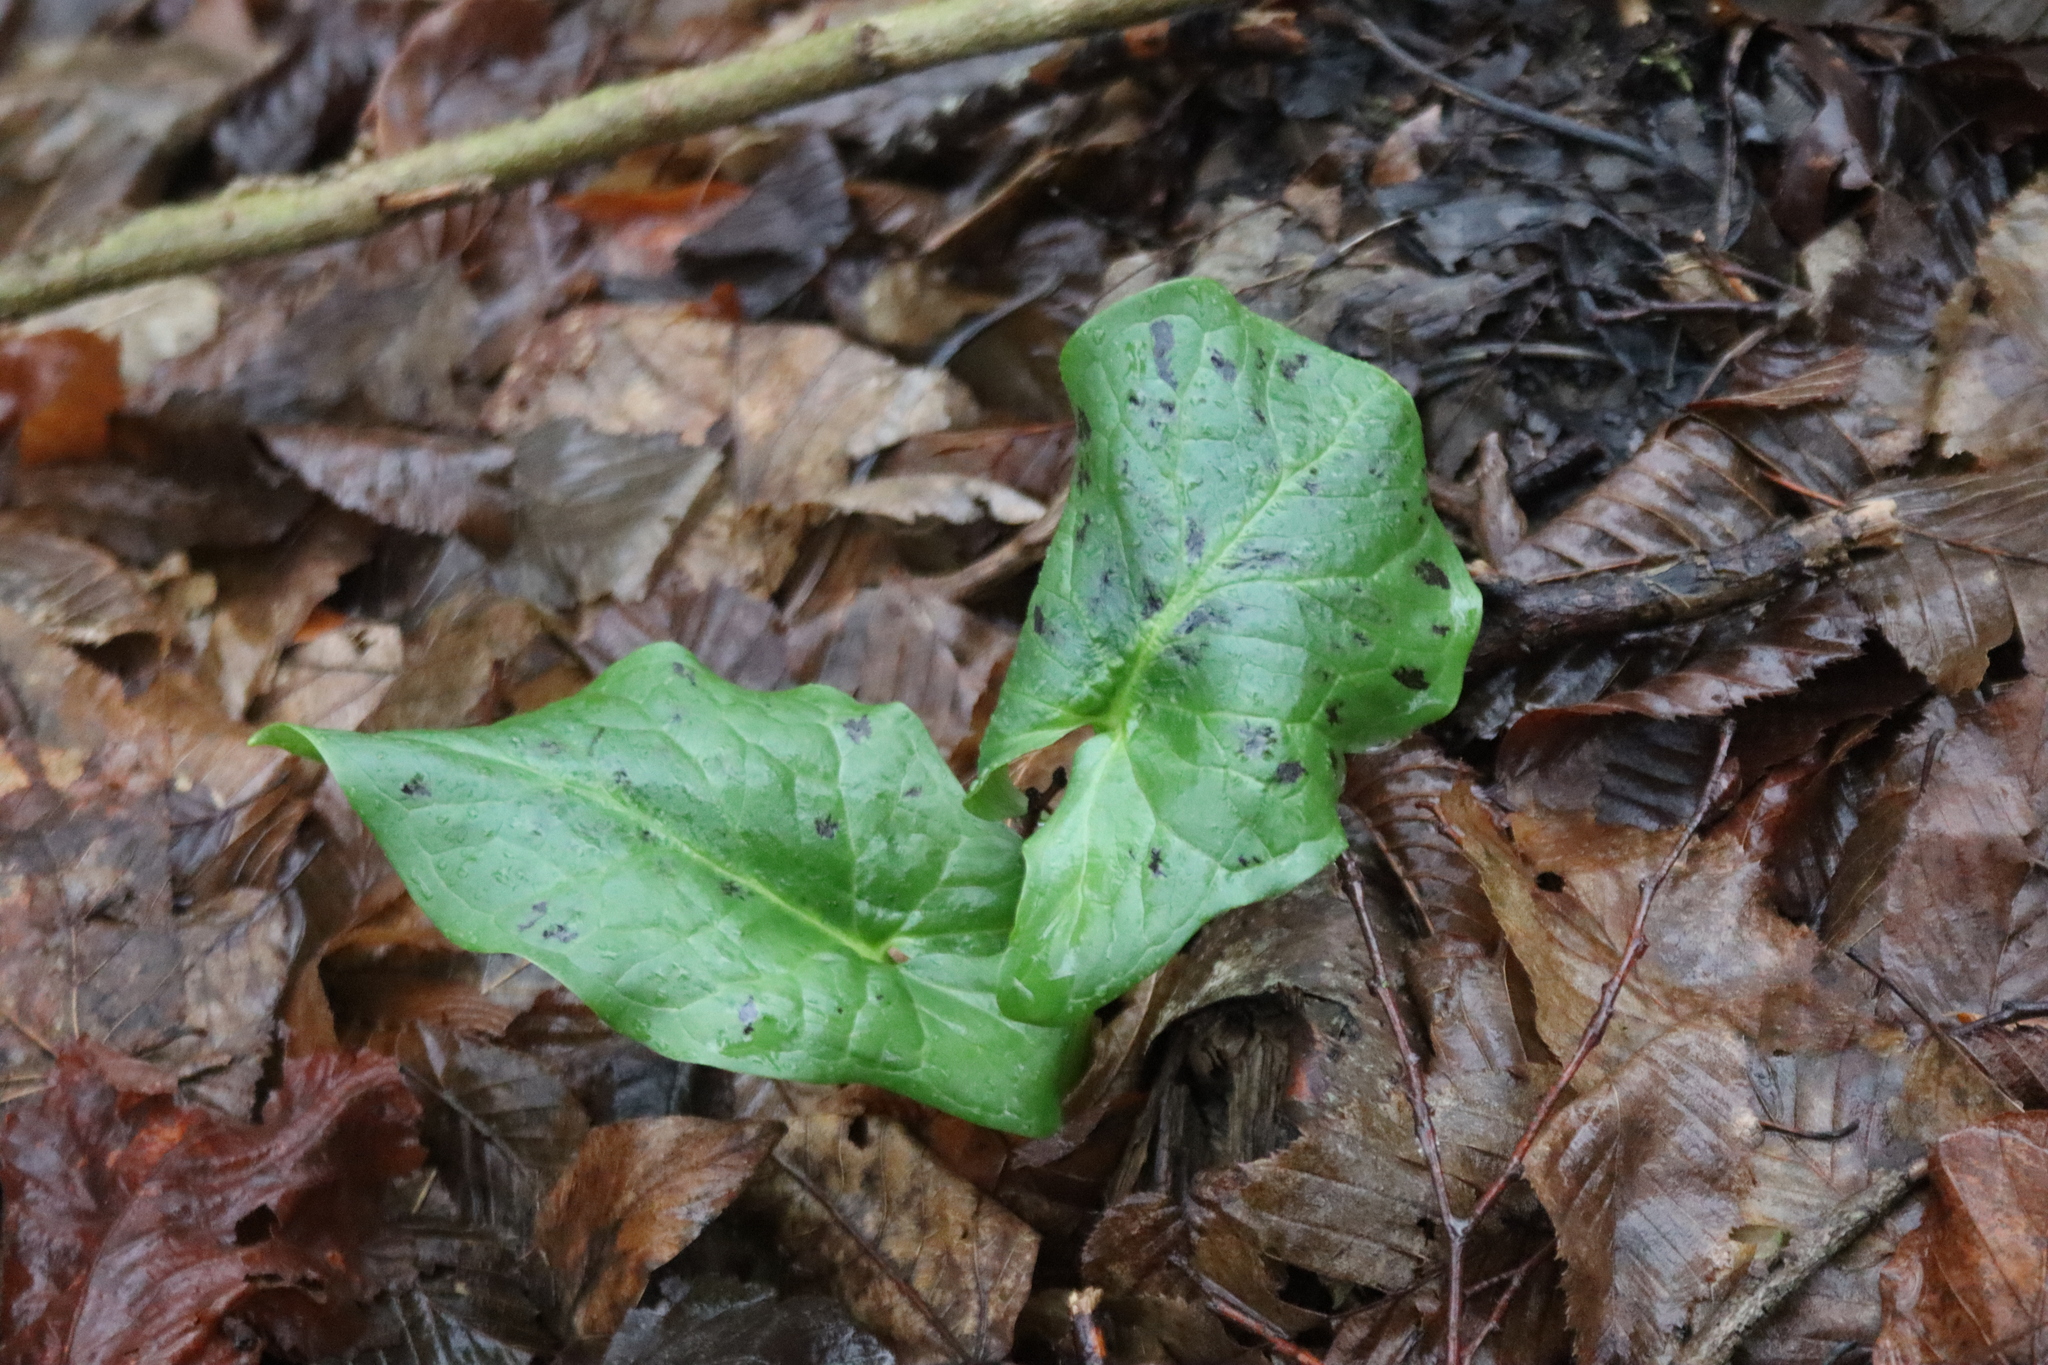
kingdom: Plantae
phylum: Tracheophyta
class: Liliopsida
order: Alismatales
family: Araceae
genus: Arum
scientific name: Arum maculatum
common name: Lords-and-ladies
